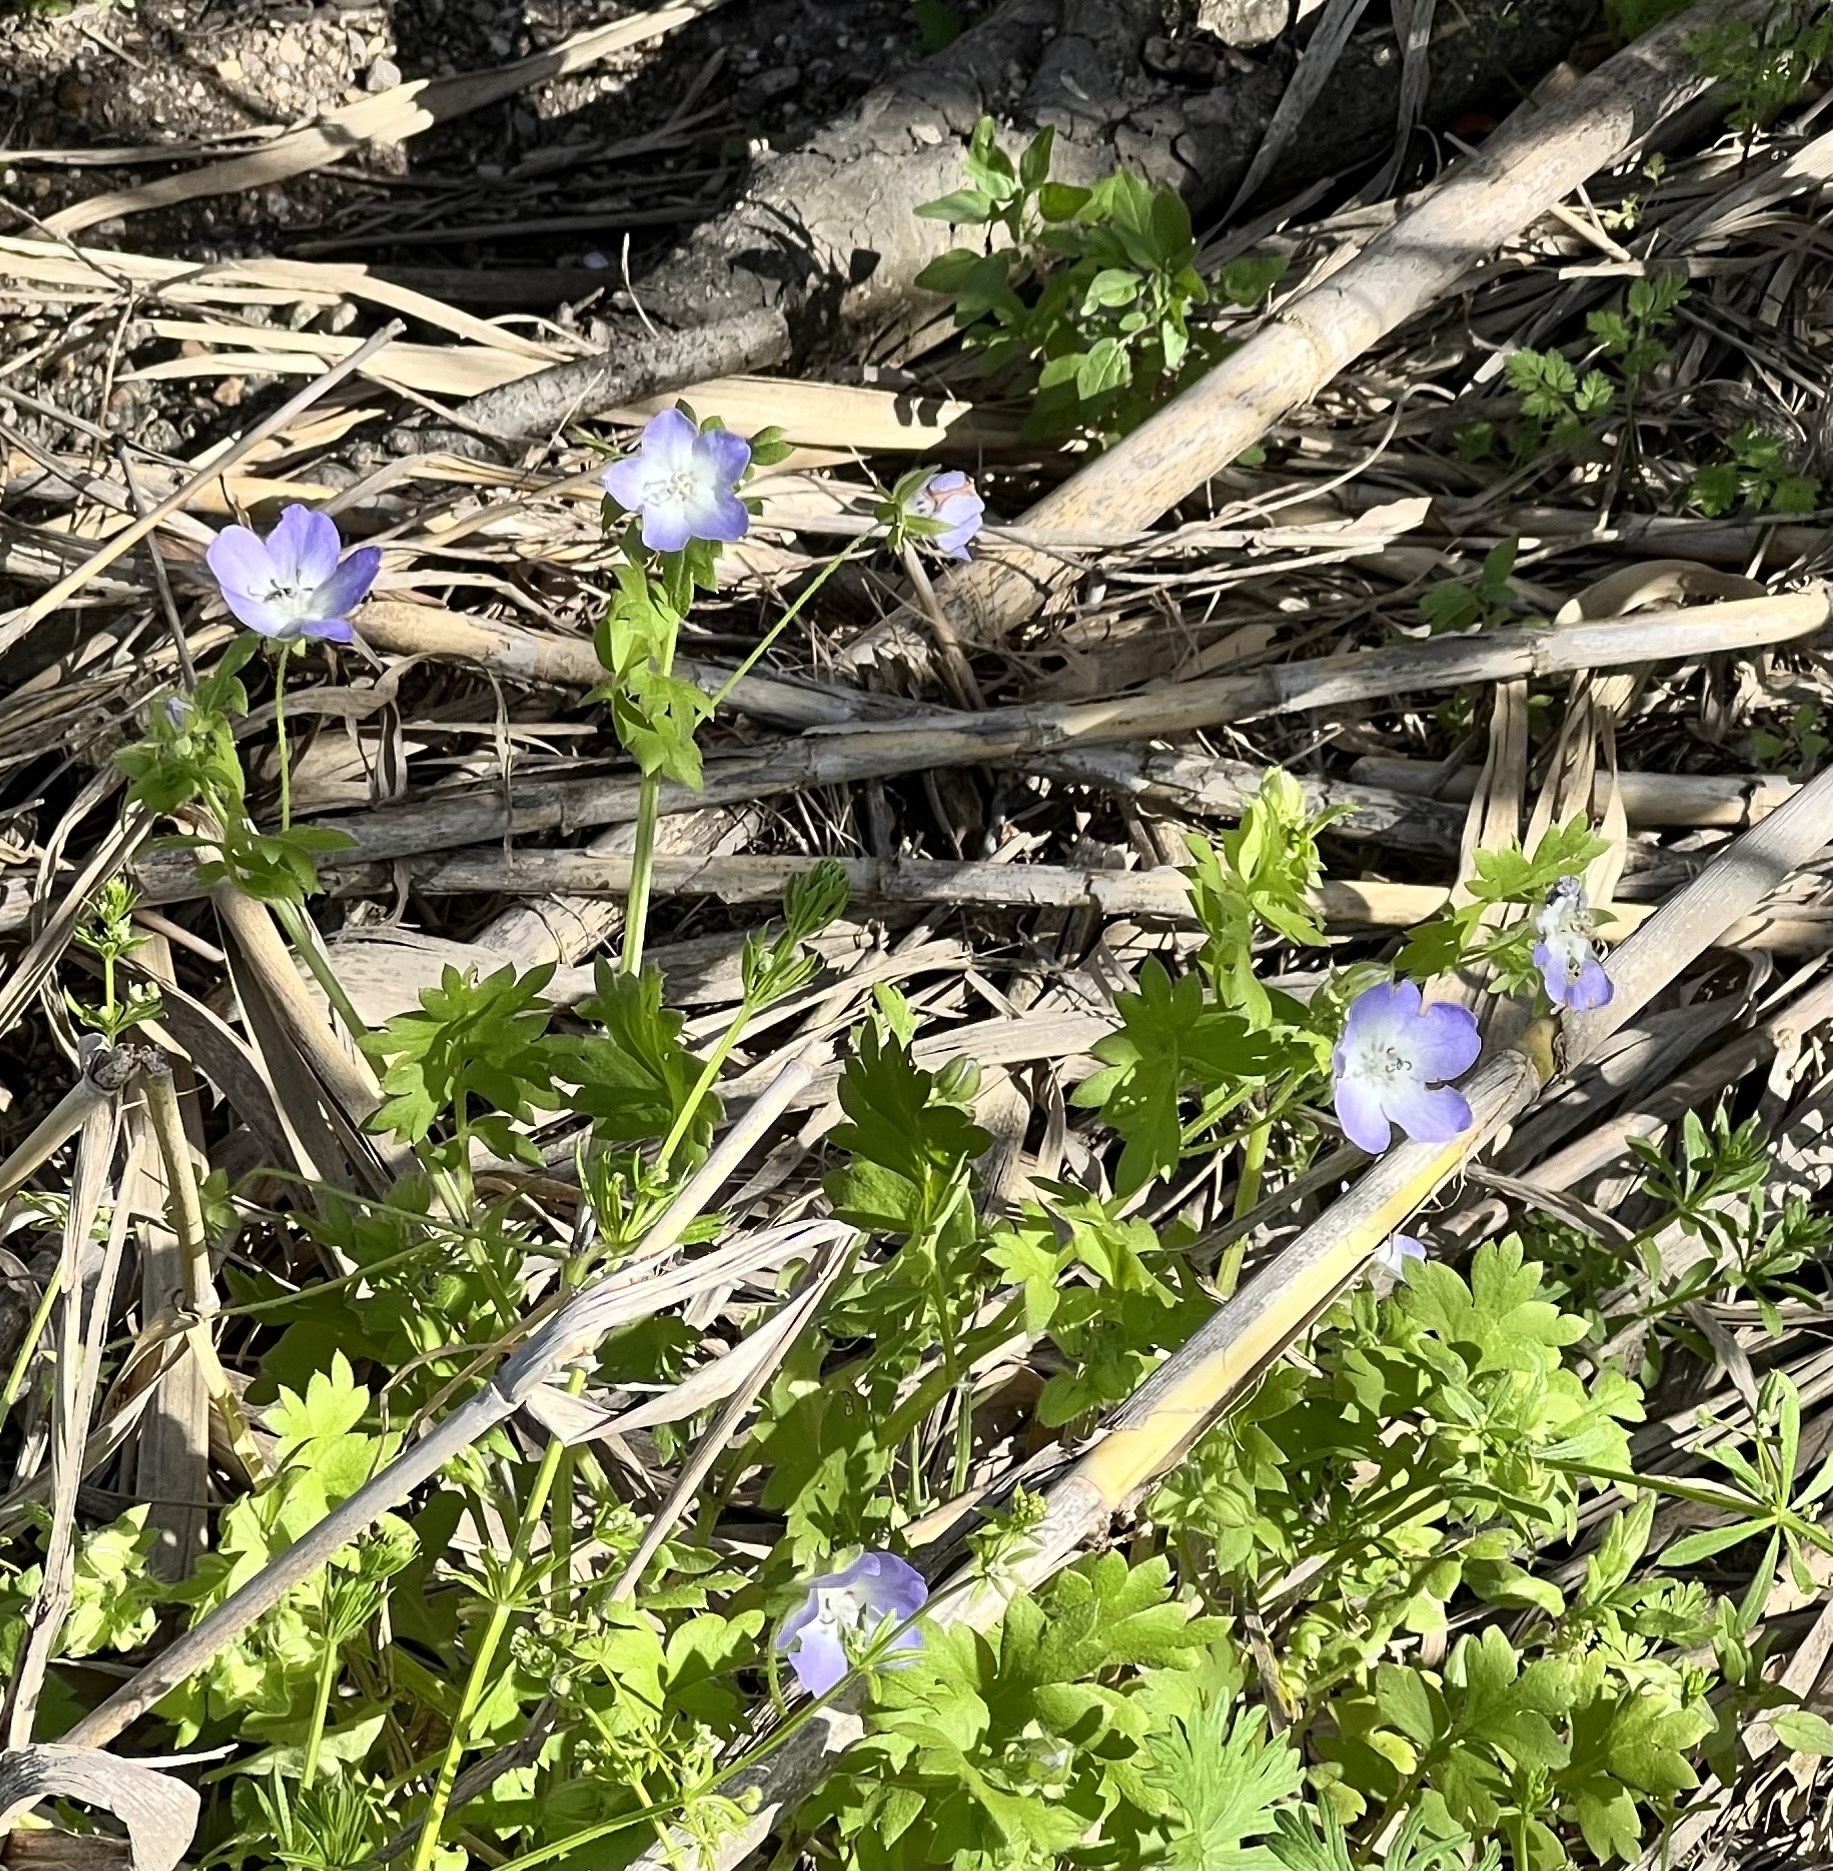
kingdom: Plantae
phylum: Tracheophyta
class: Magnoliopsida
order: Boraginales
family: Hydrophyllaceae
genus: Nemophila
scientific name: Nemophila phacelioides
